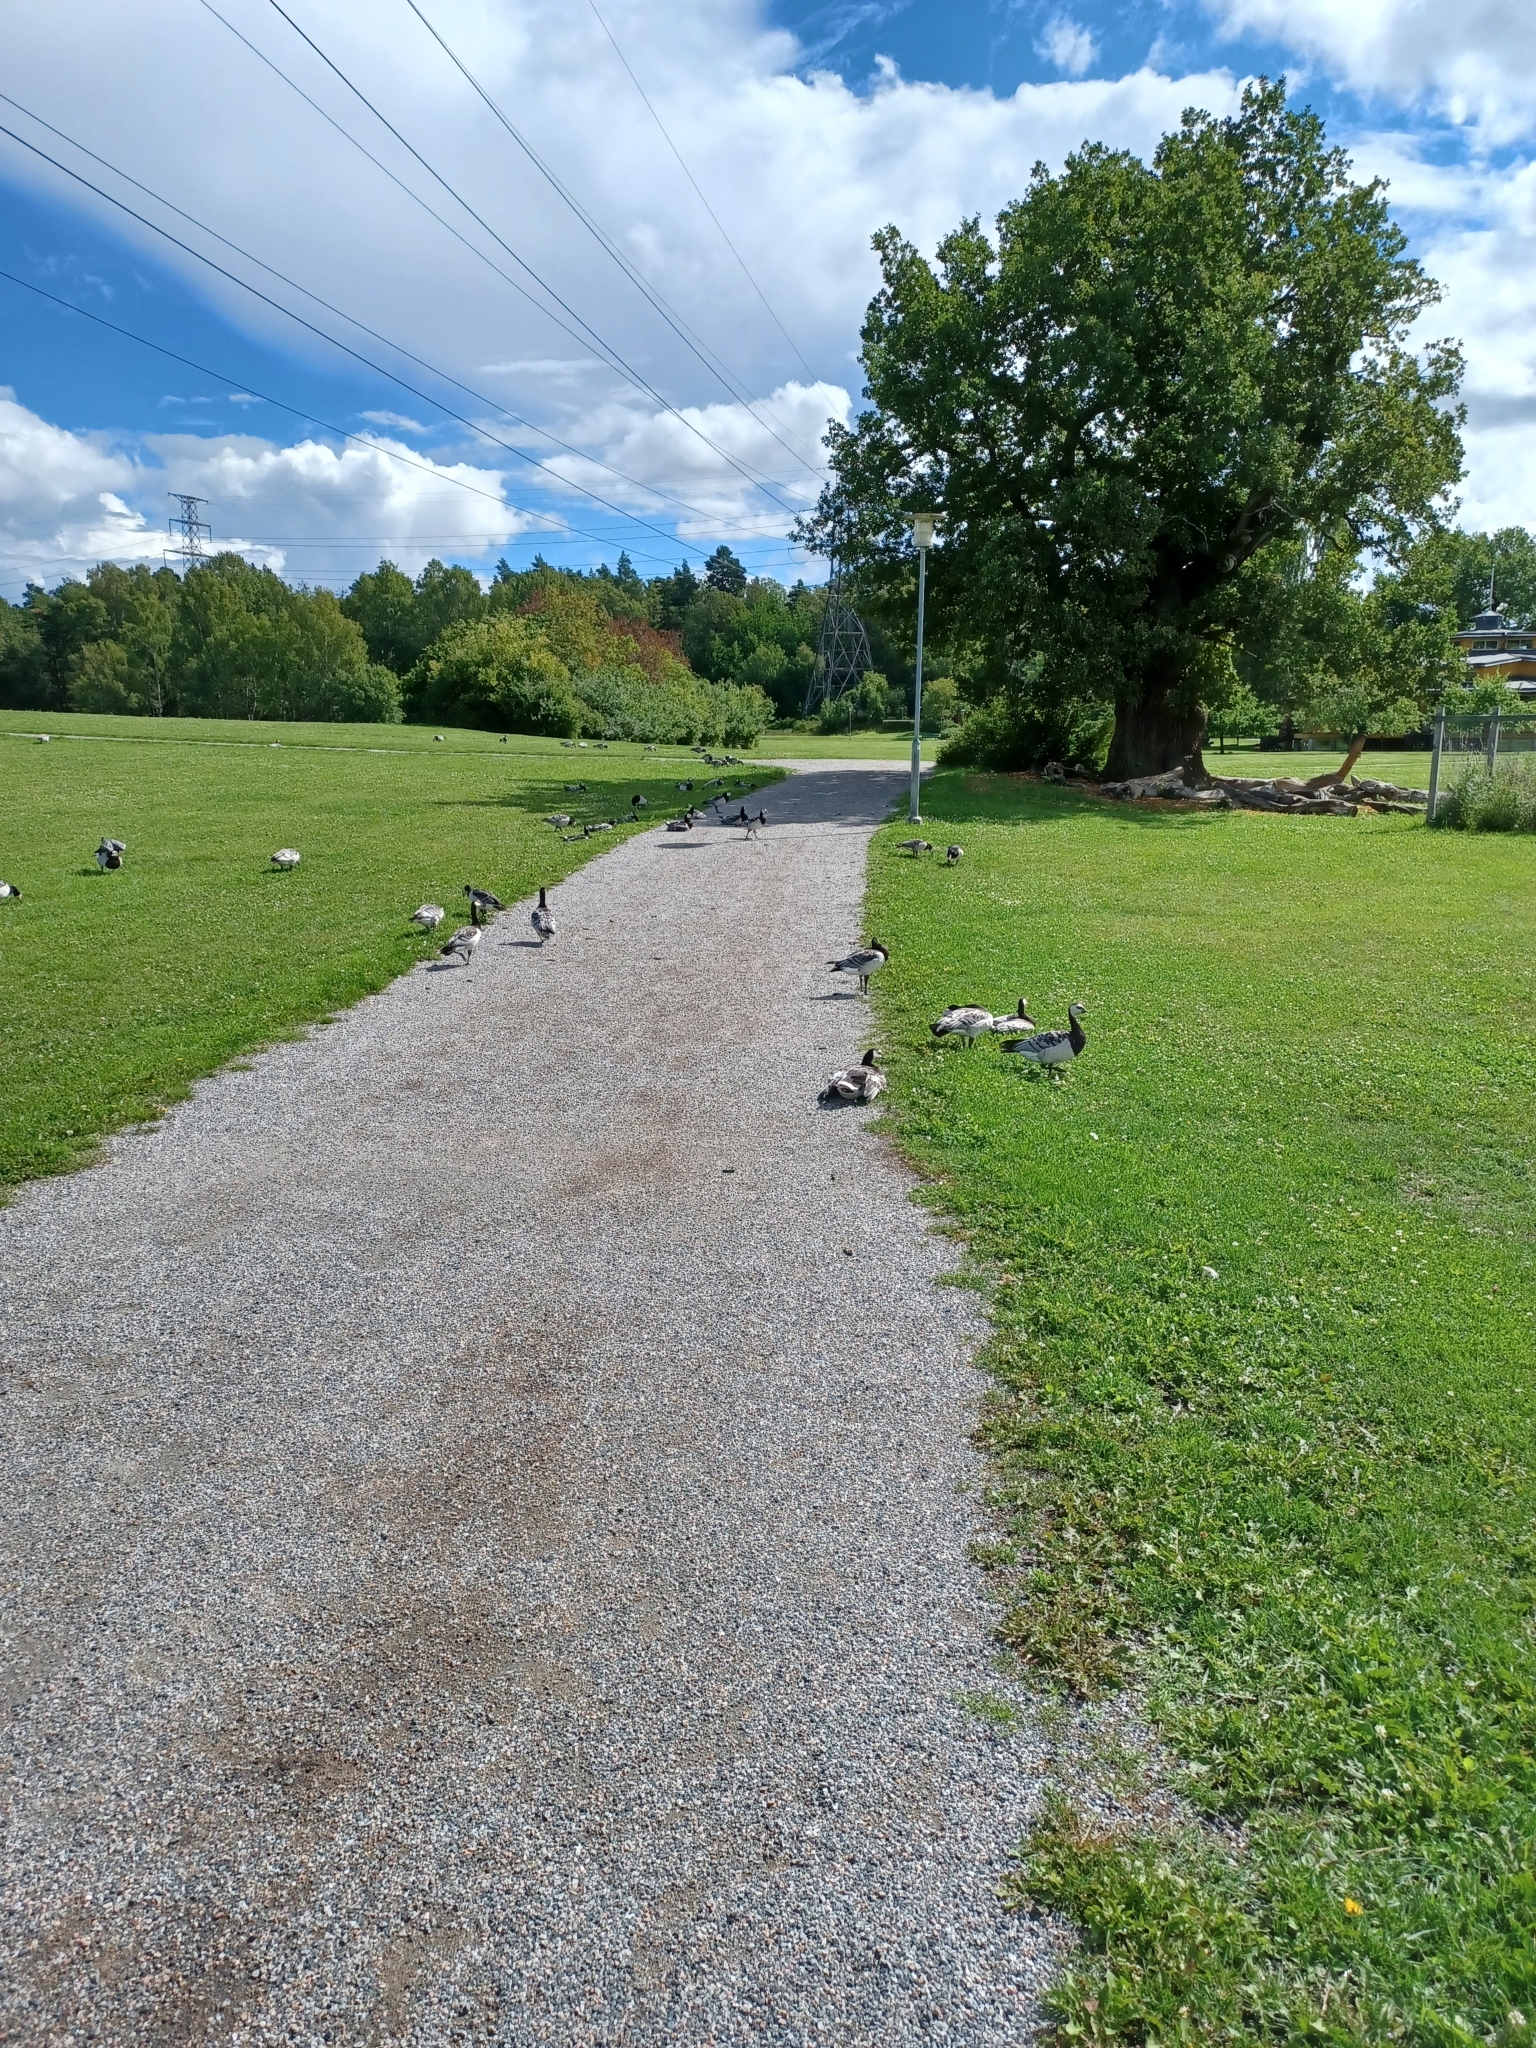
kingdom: Animalia
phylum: Chordata
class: Aves
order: Anseriformes
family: Anatidae
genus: Branta
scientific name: Branta leucopsis
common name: Barnacle goose
